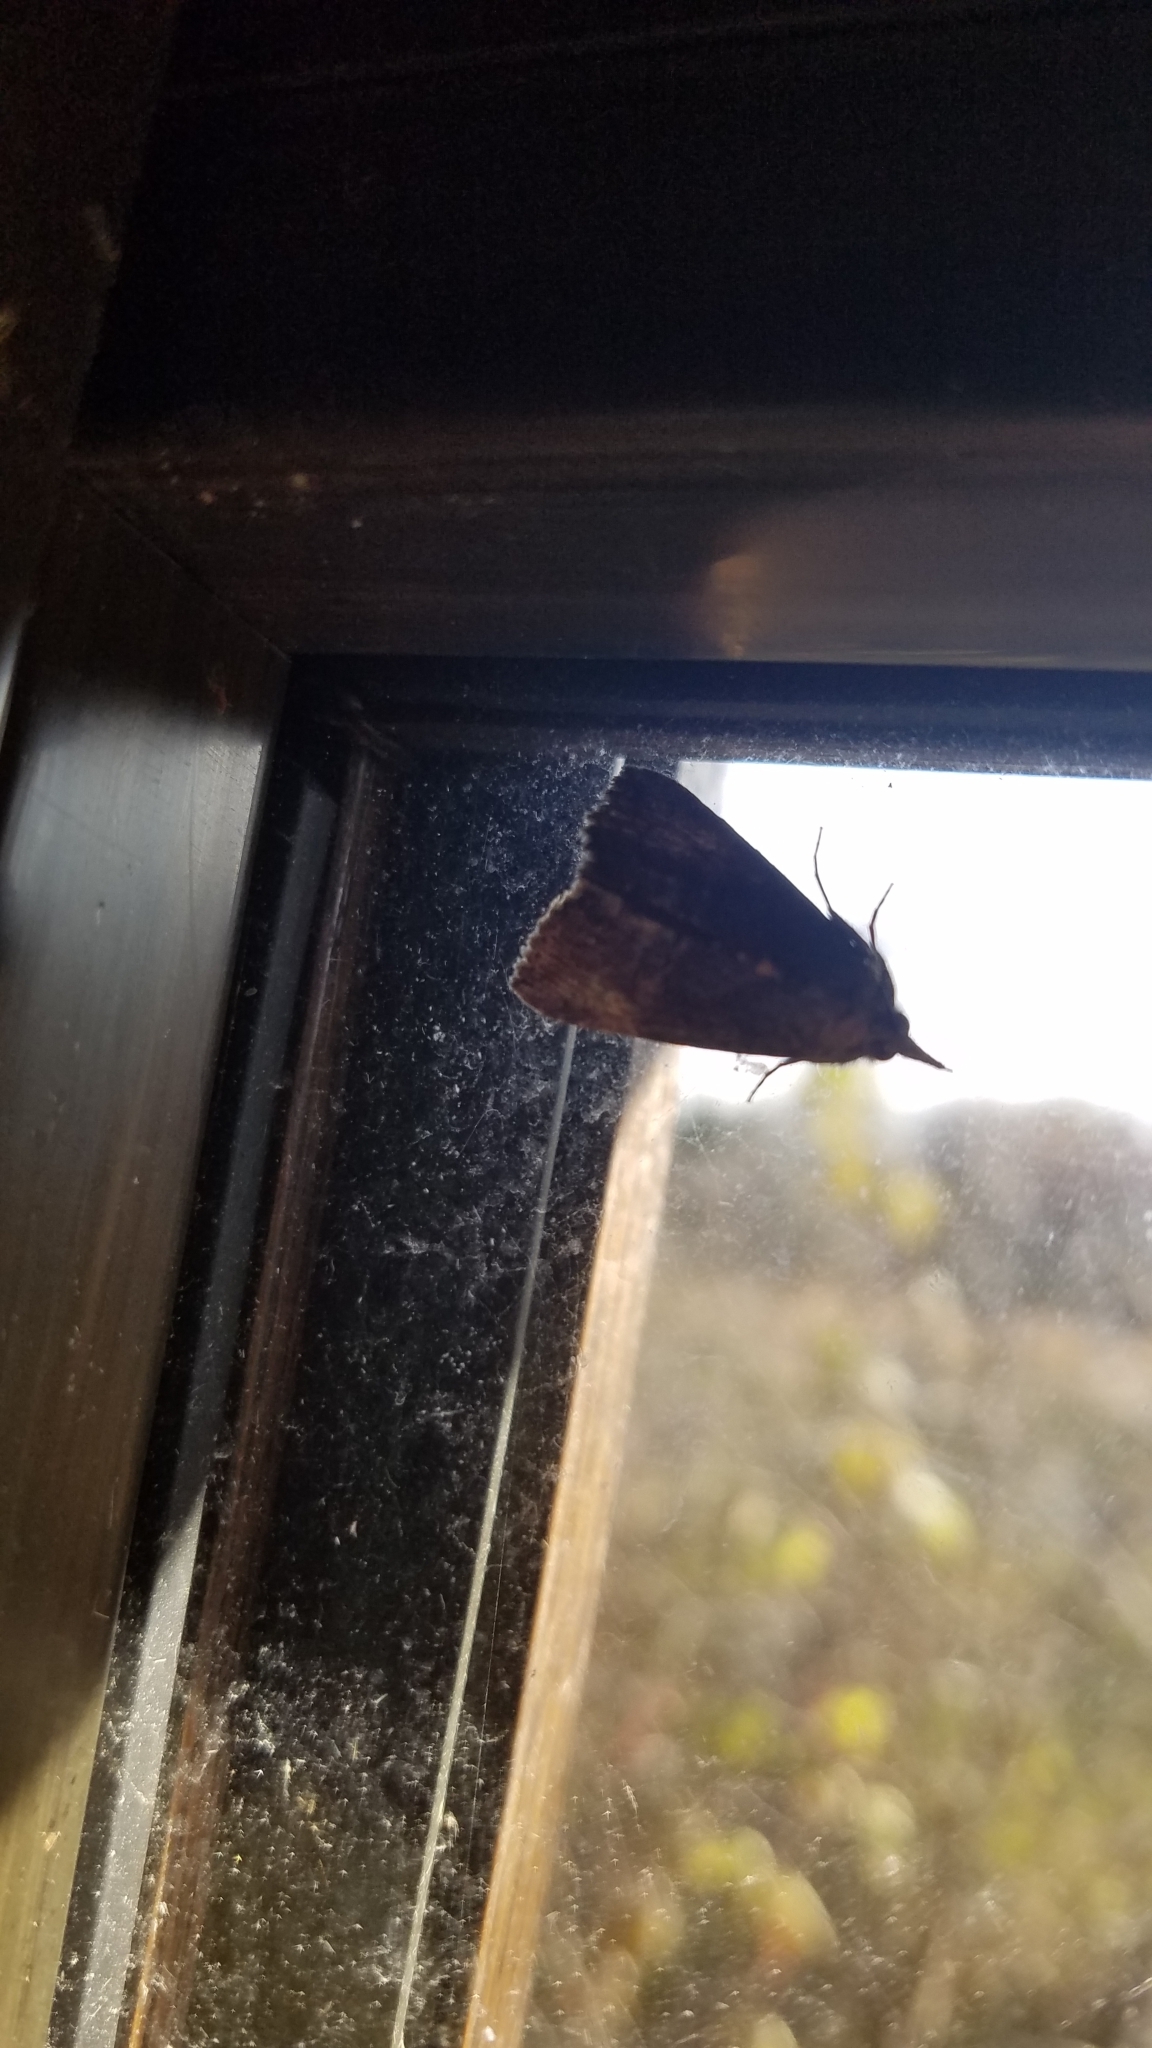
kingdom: Animalia
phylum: Arthropoda
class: Insecta
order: Lepidoptera
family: Erebidae
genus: Hypena
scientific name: Hypena scabra
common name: Green cloverworm
